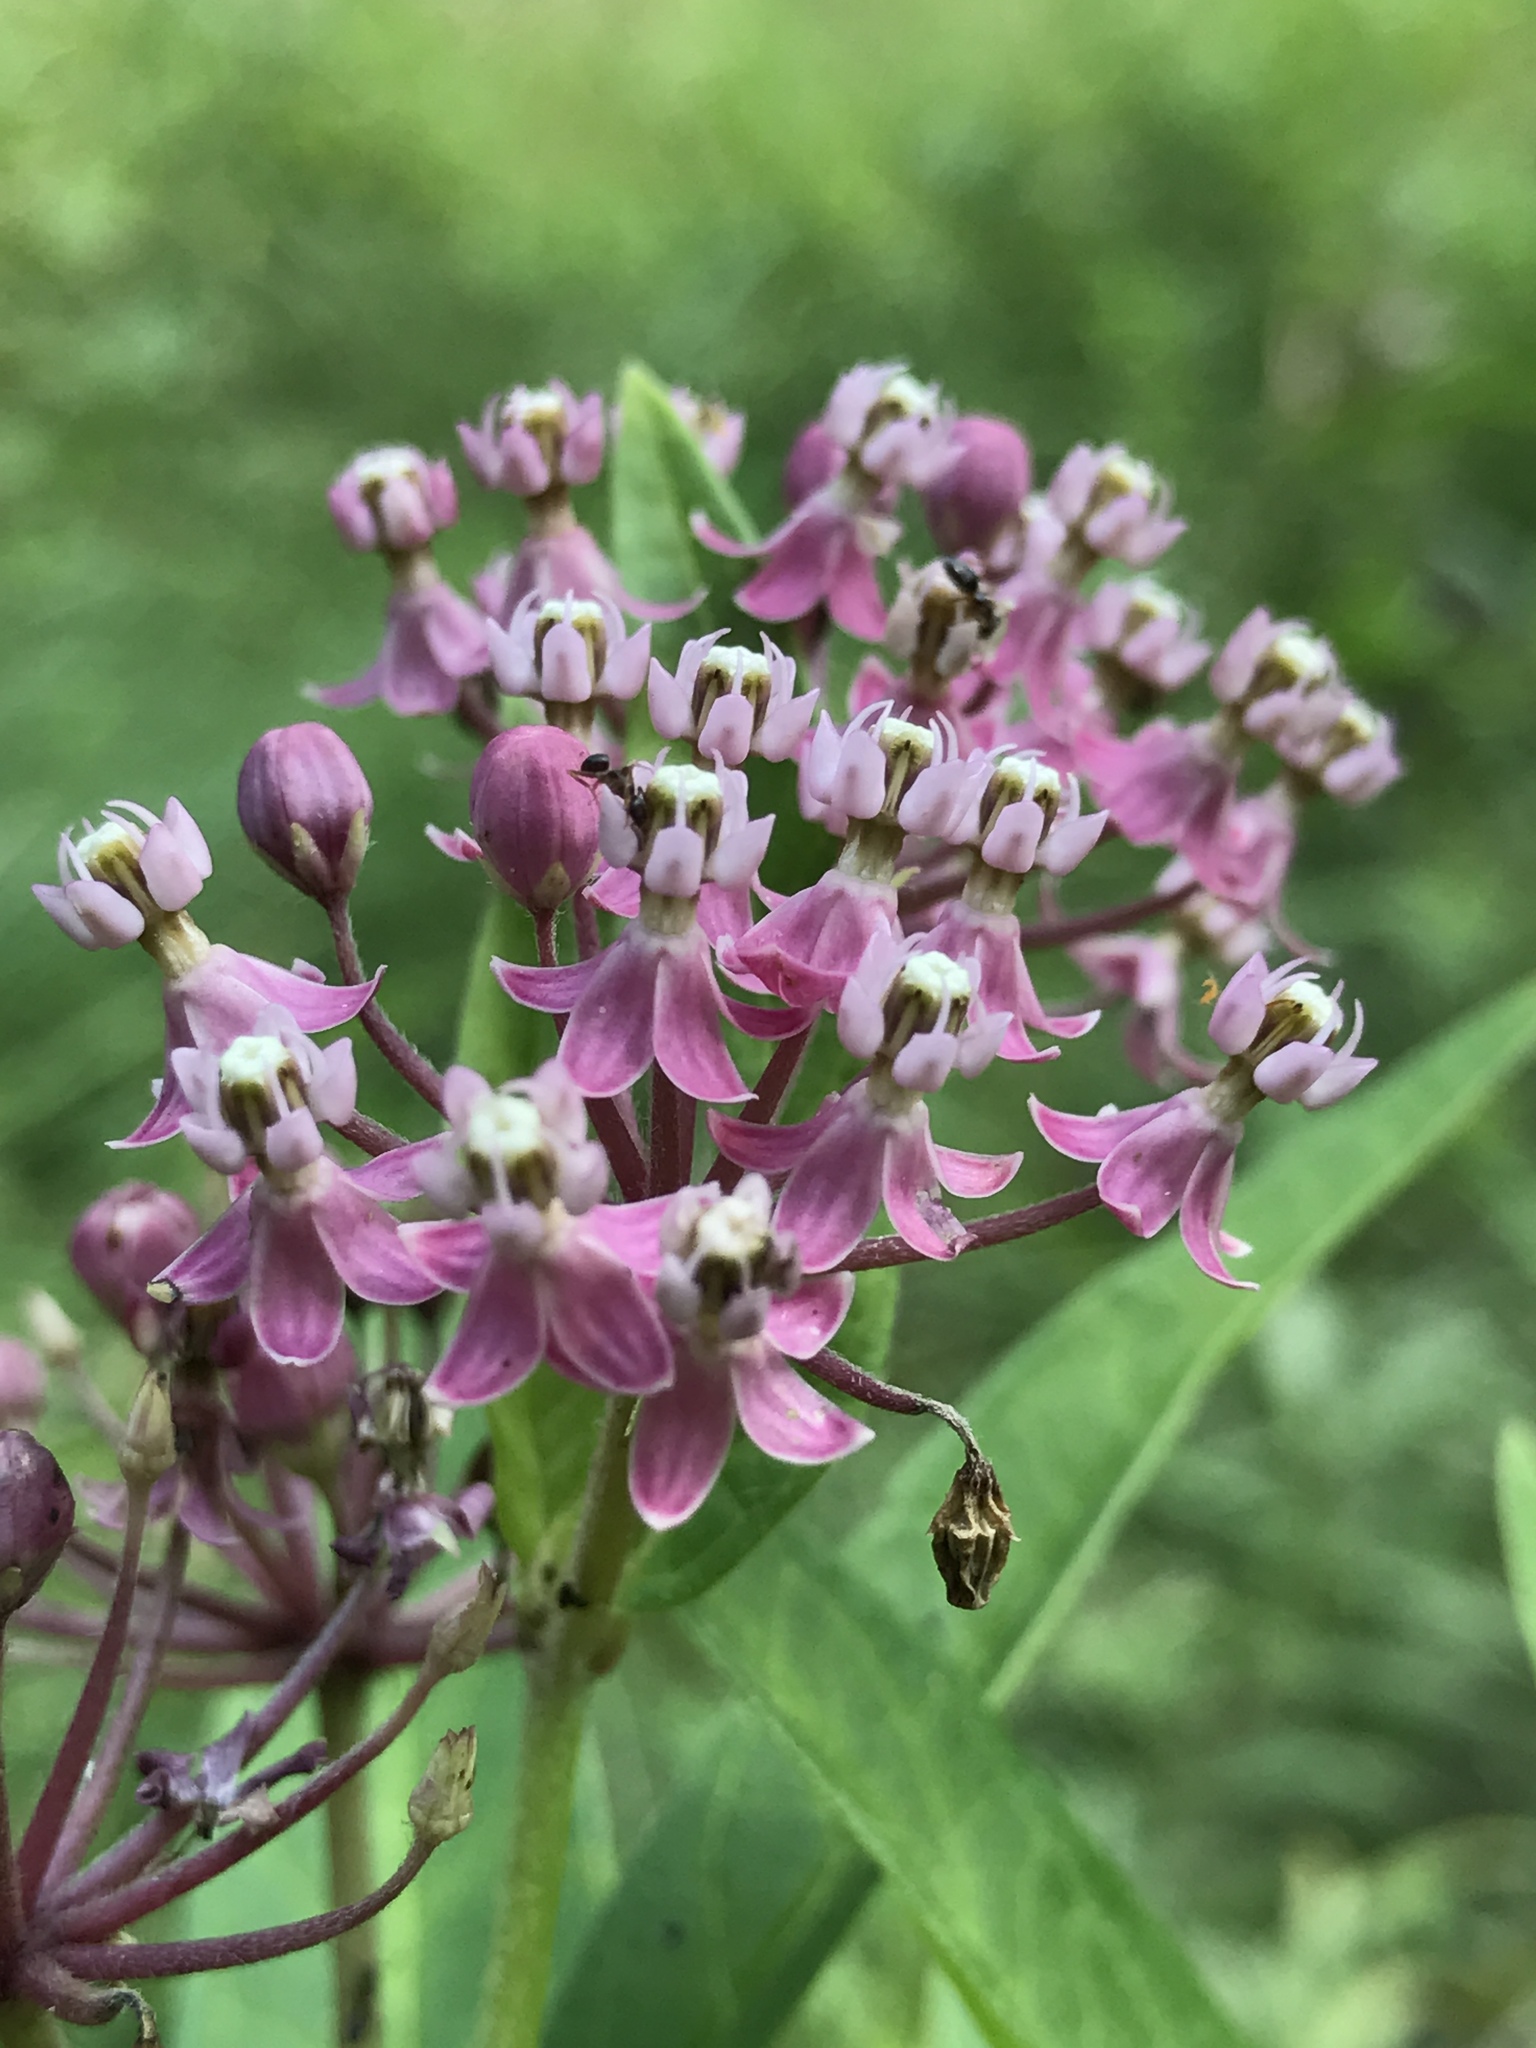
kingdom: Plantae
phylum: Tracheophyta
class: Magnoliopsida
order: Gentianales
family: Apocynaceae
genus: Asclepias
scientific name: Asclepias incarnata
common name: Swamp milkweed
